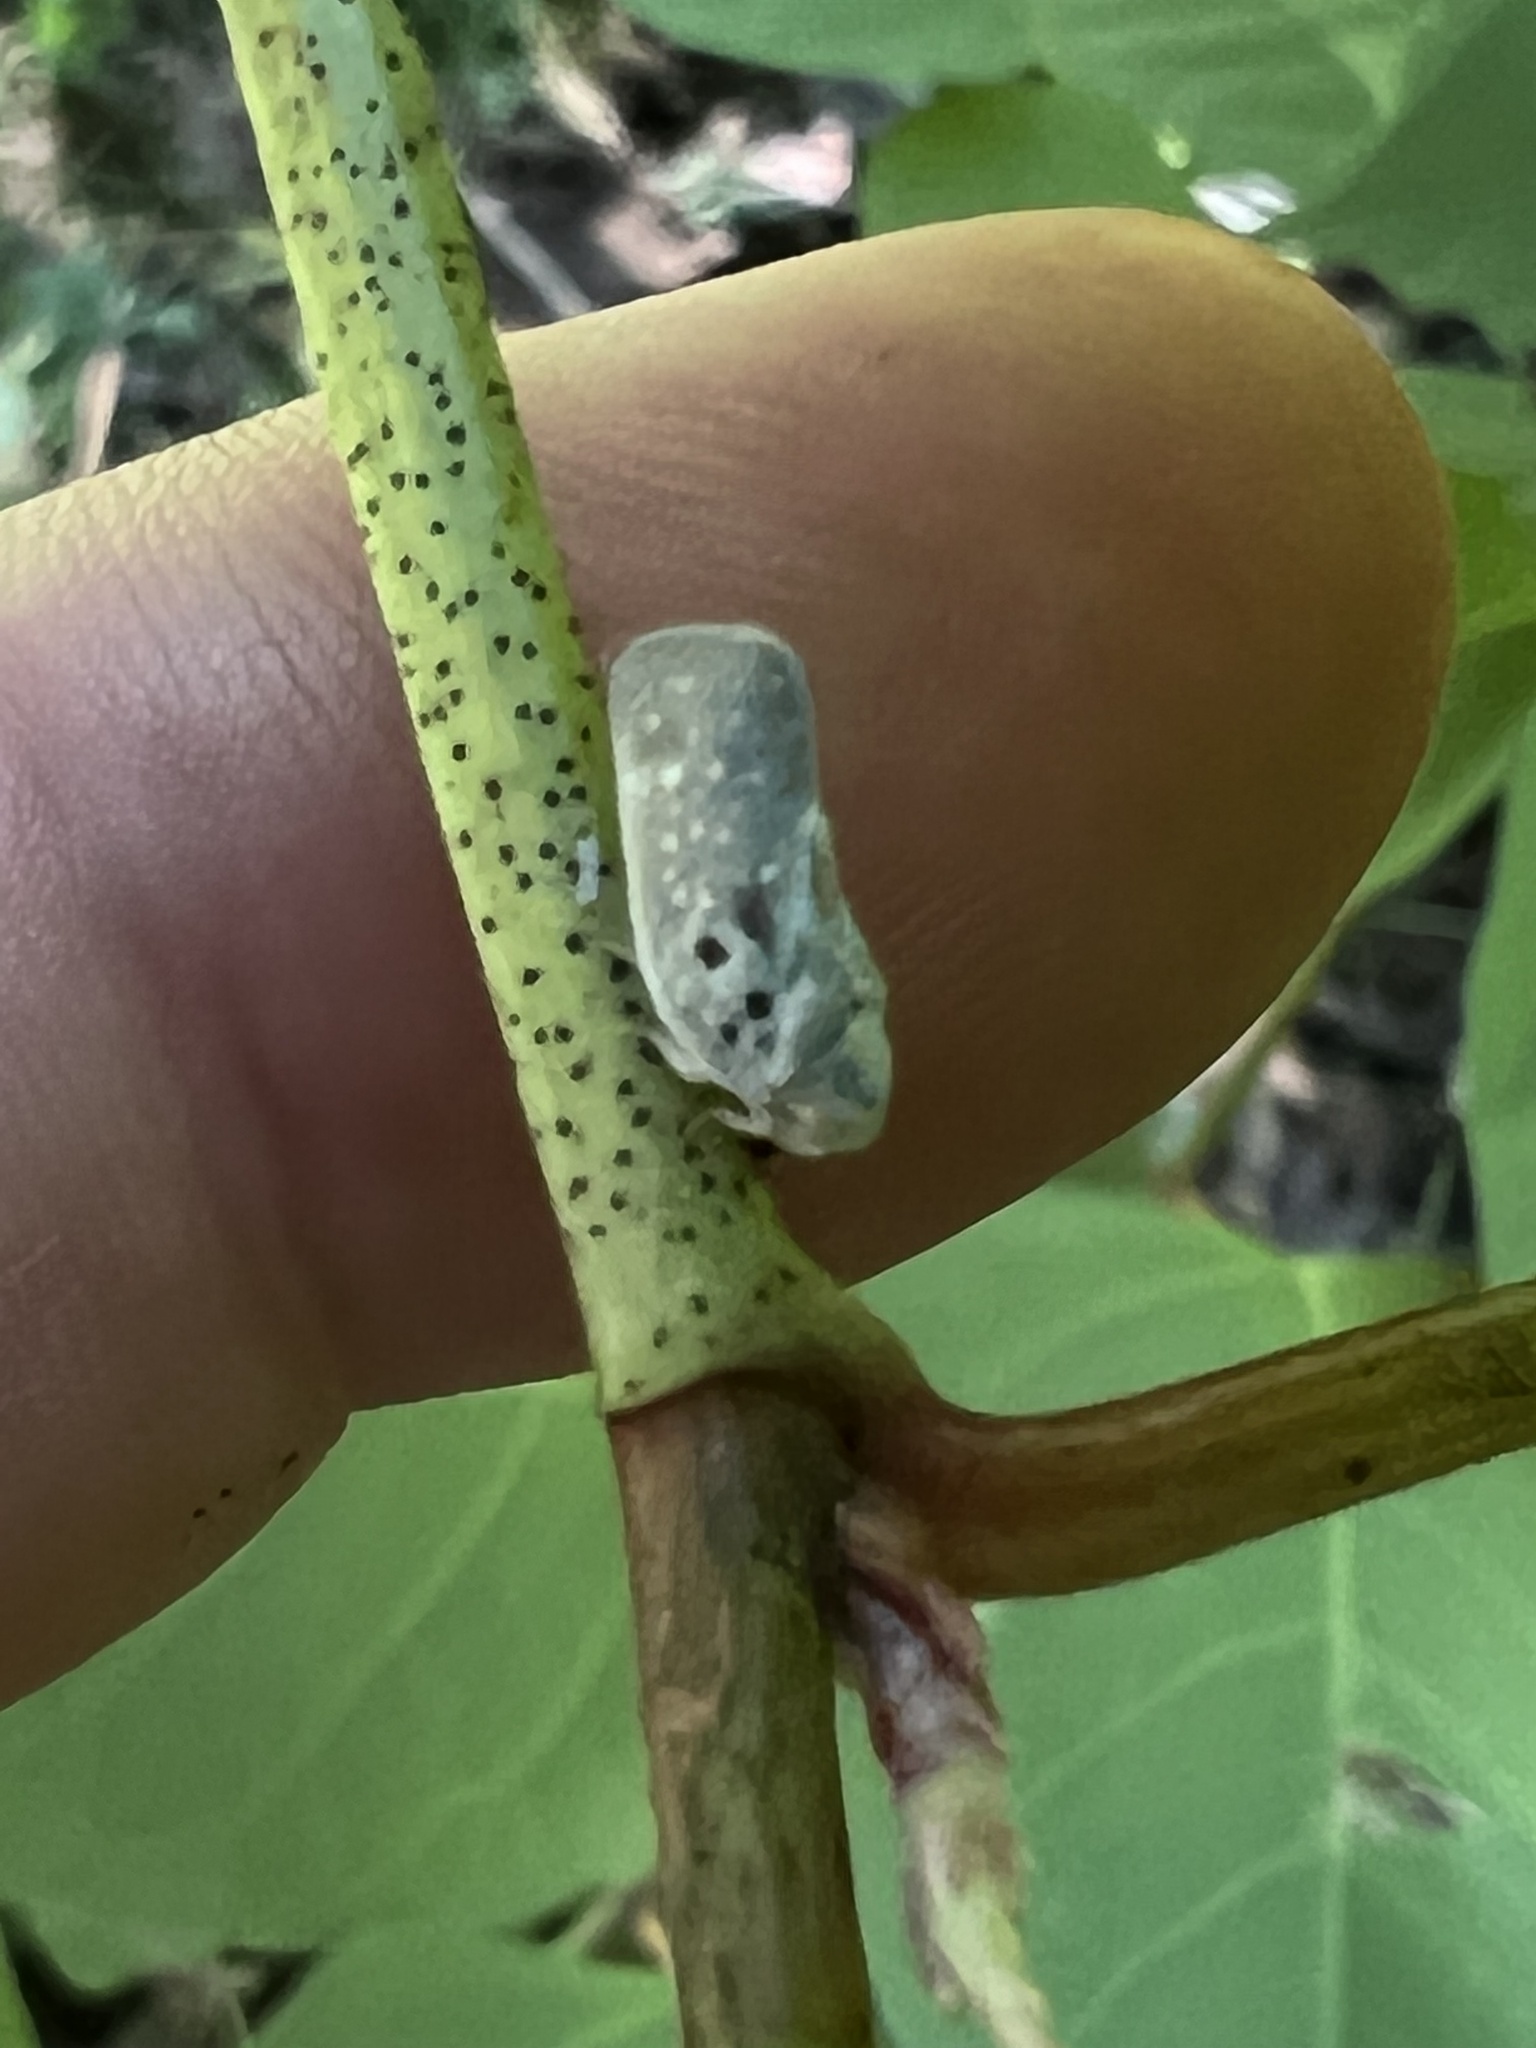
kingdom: Animalia
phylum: Arthropoda
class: Insecta
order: Hemiptera
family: Flatidae
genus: Metcalfa
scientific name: Metcalfa pruinosa
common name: Citrus flatid planthopper
